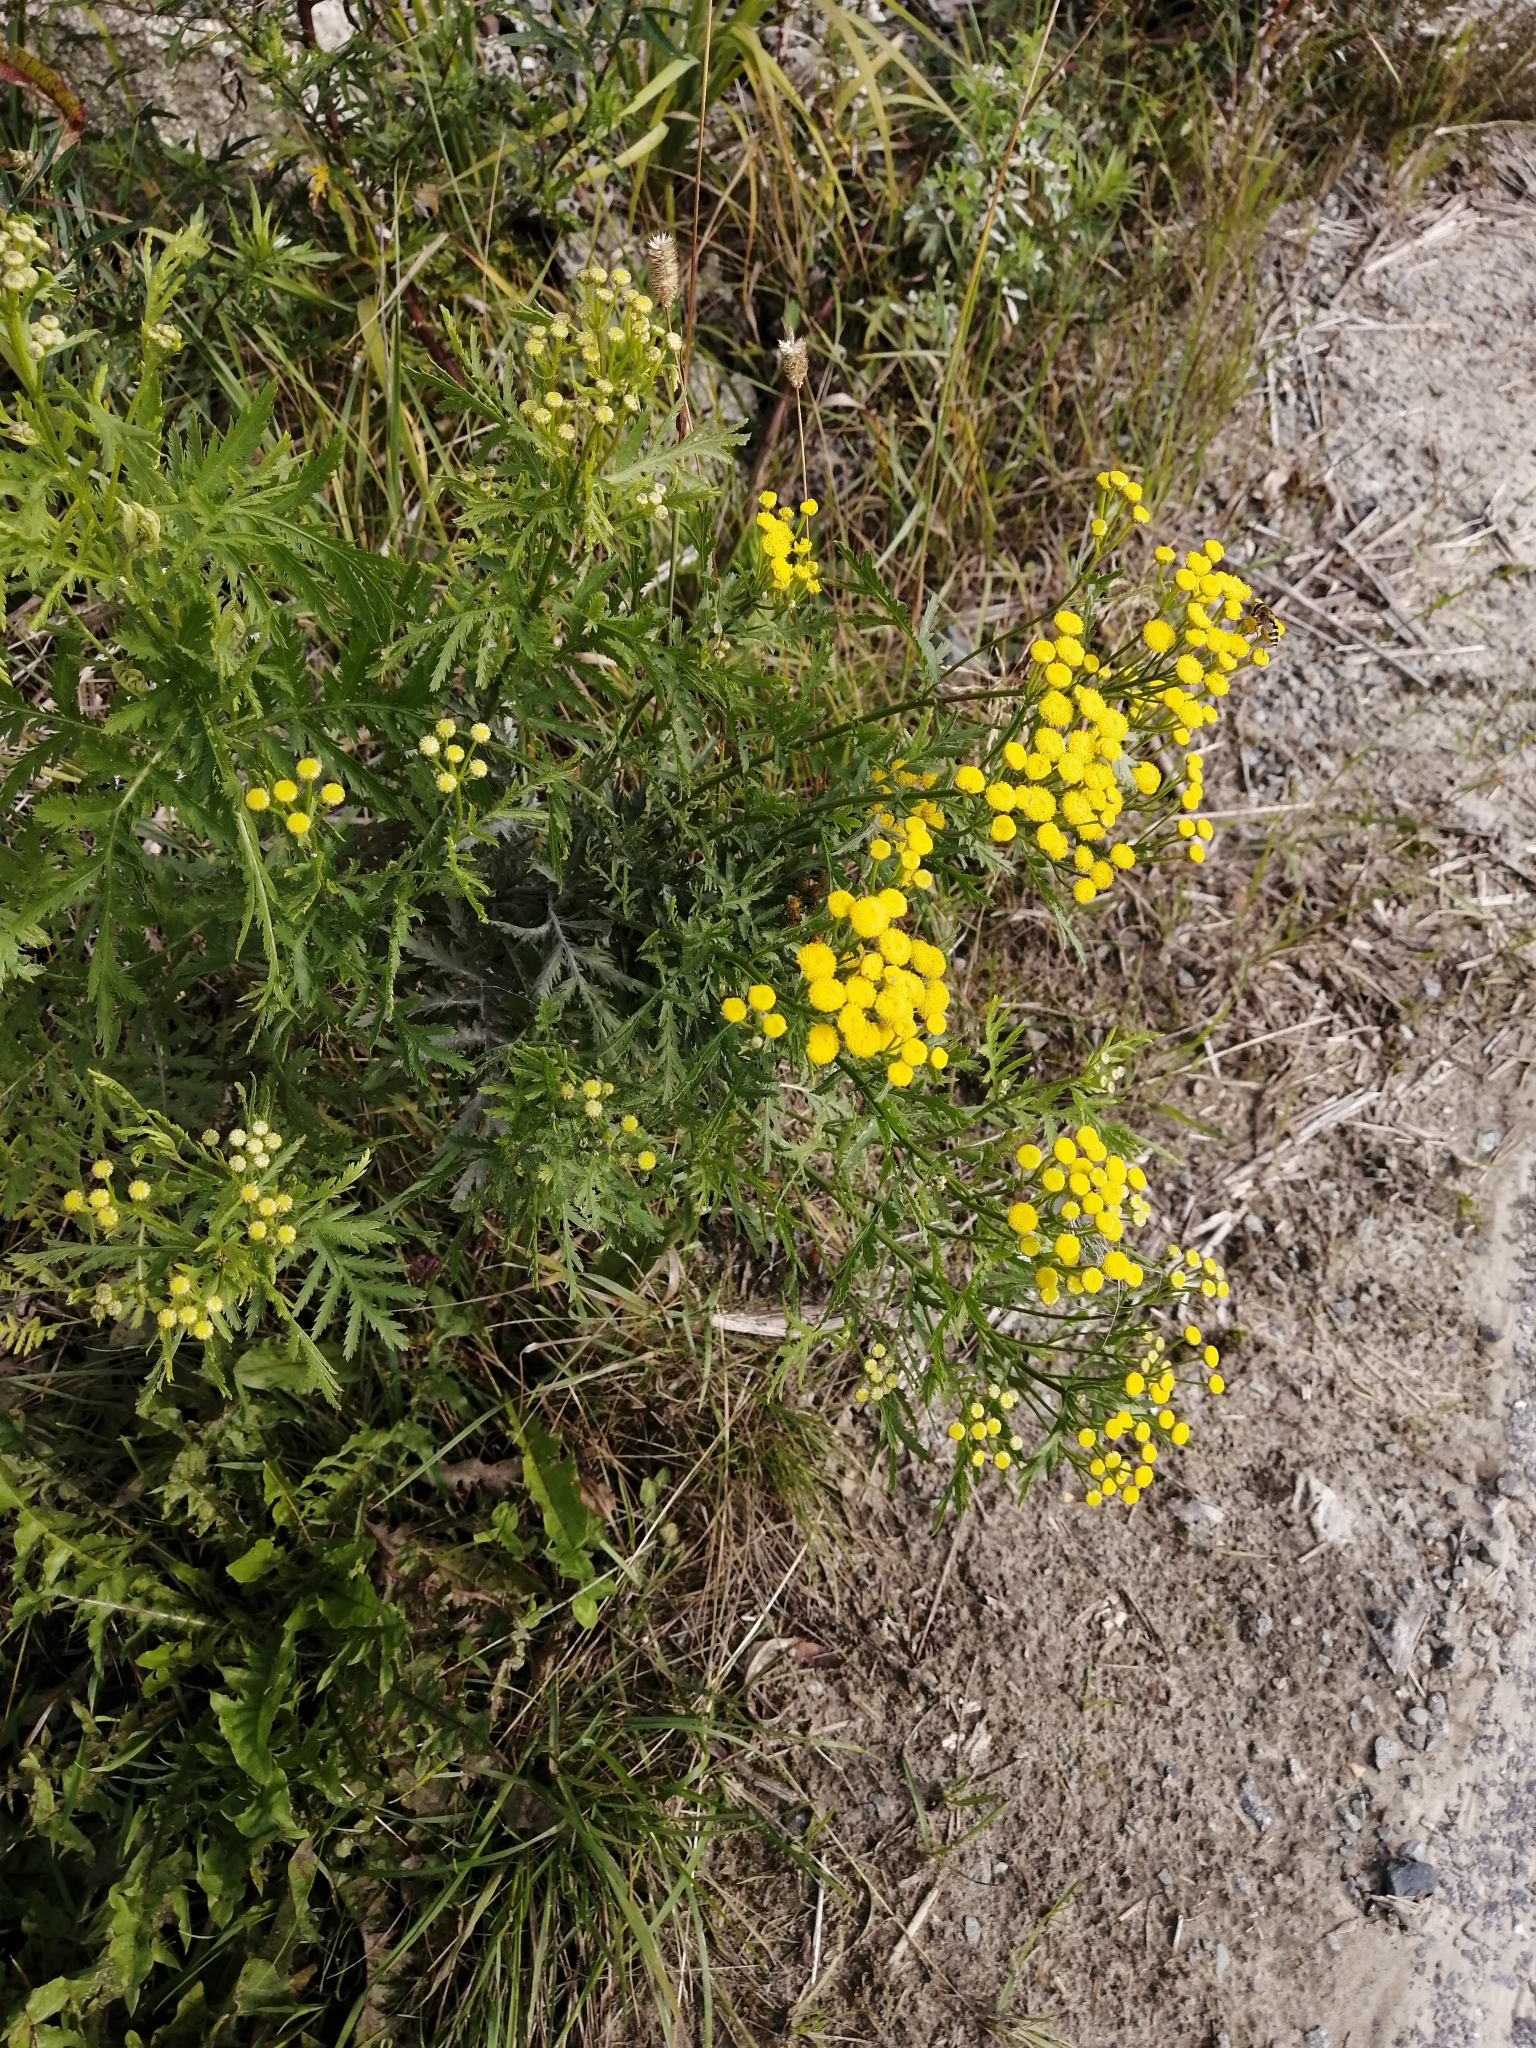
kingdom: Plantae
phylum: Tracheophyta
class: Magnoliopsida
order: Asterales
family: Asteraceae
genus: Tanacetum
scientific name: Tanacetum vulgare
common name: Common tansy
